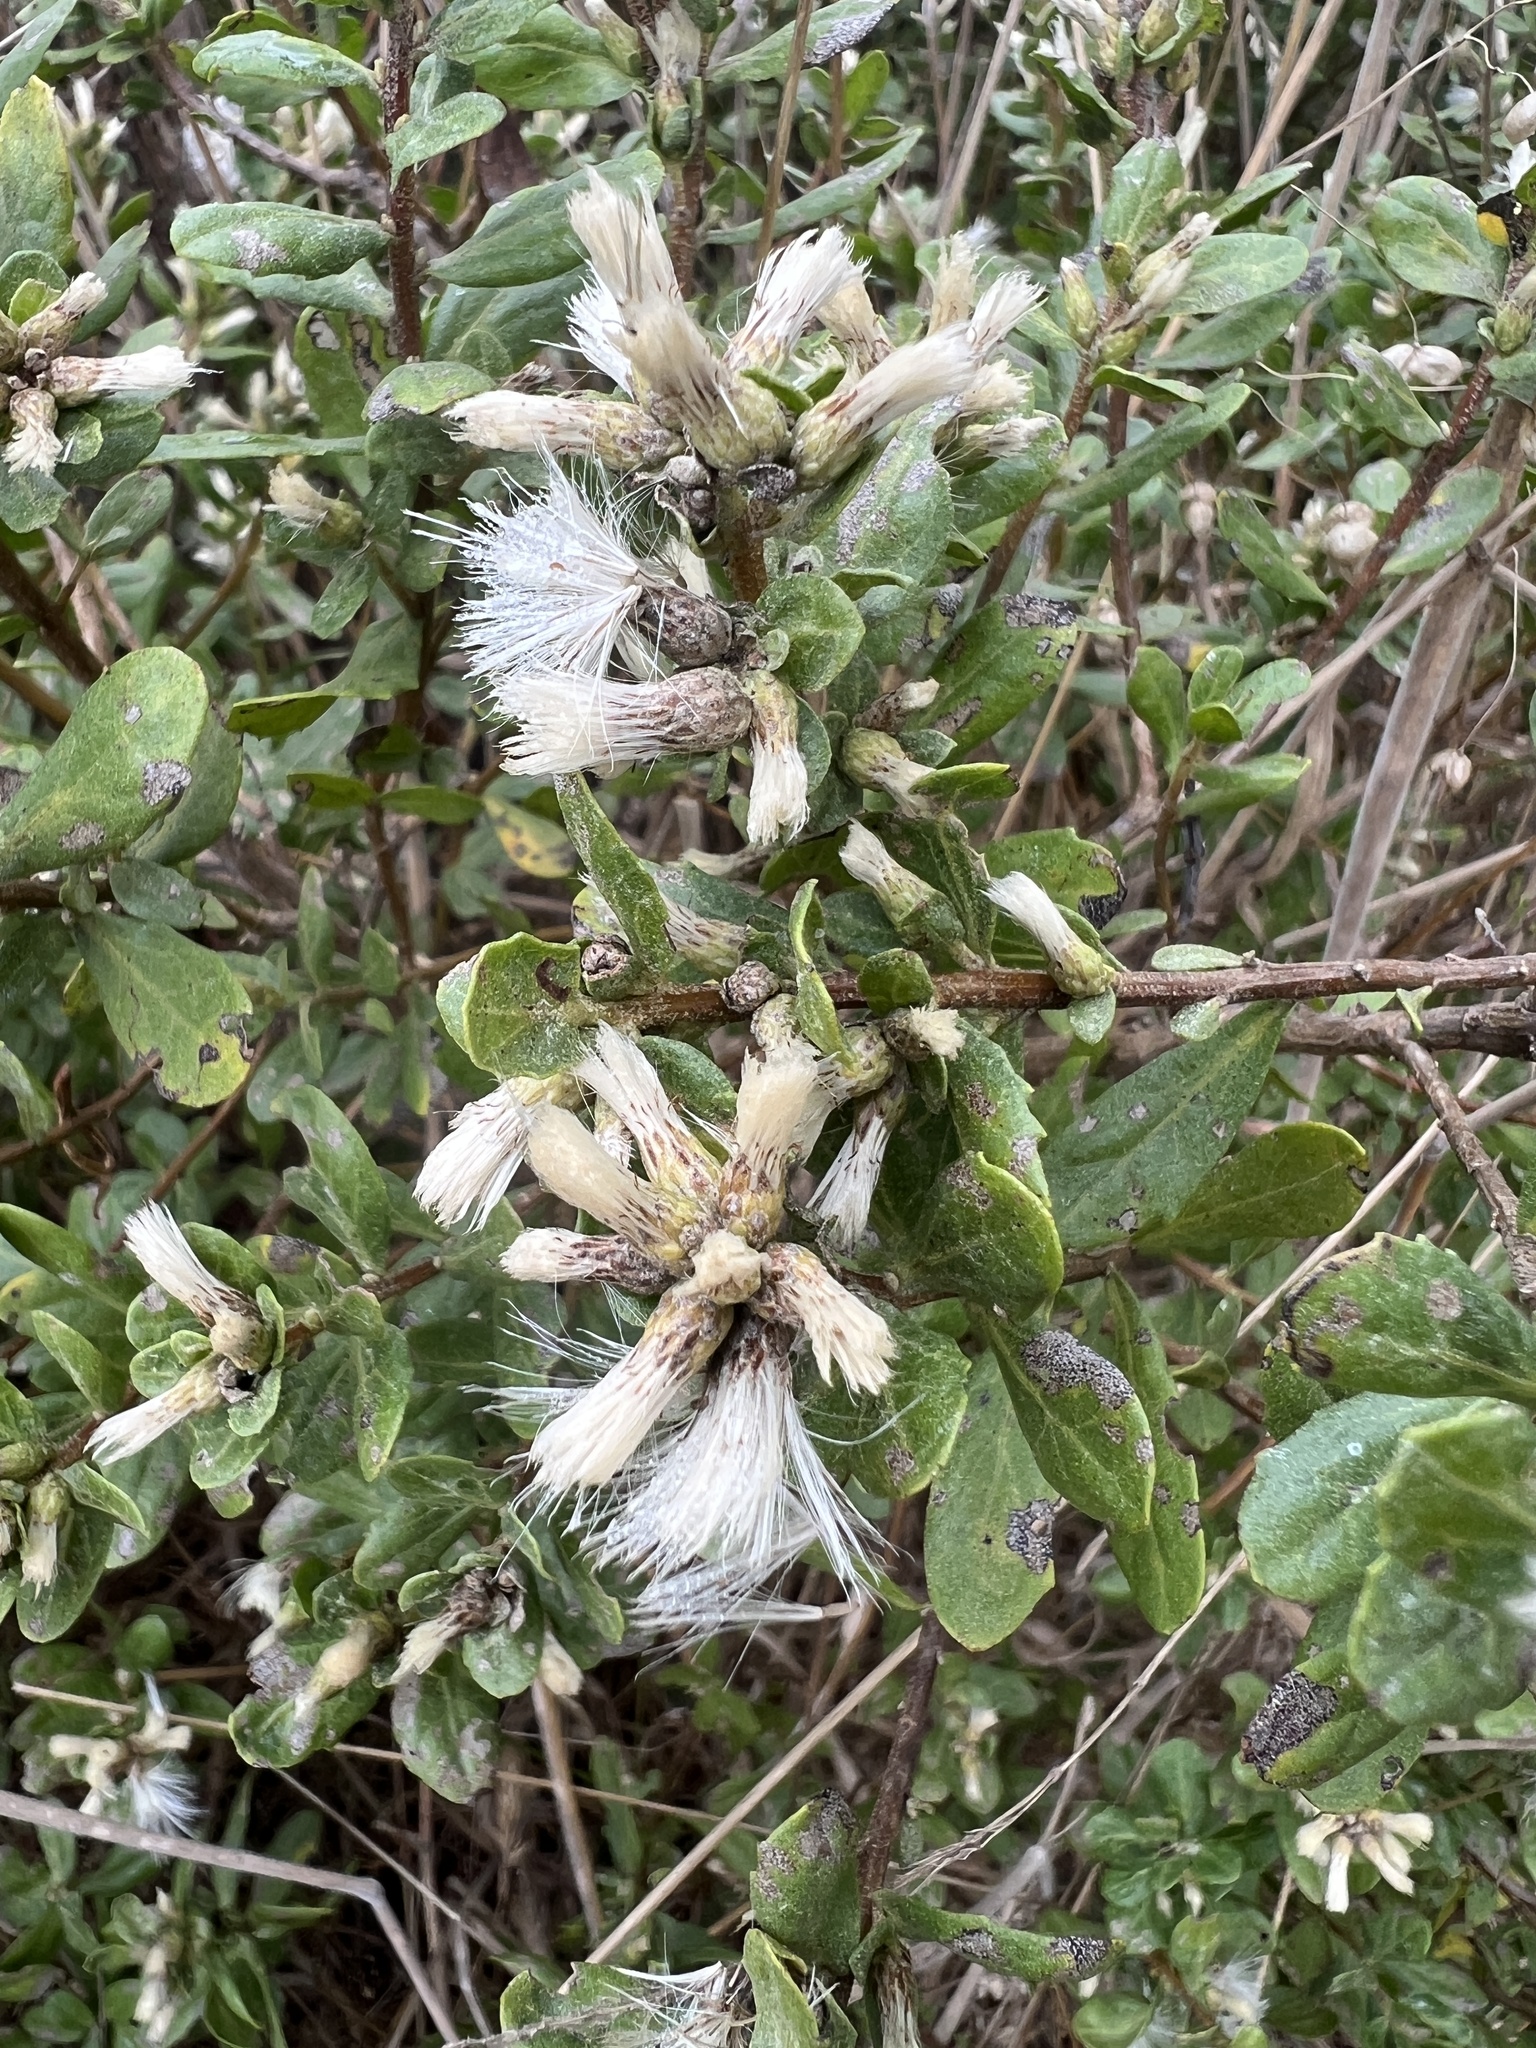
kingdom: Plantae
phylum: Tracheophyta
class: Magnoliopsida
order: Asterales
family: Asteraceae
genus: Baccharis
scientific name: Baccharis pilularis
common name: Coyotebrush
